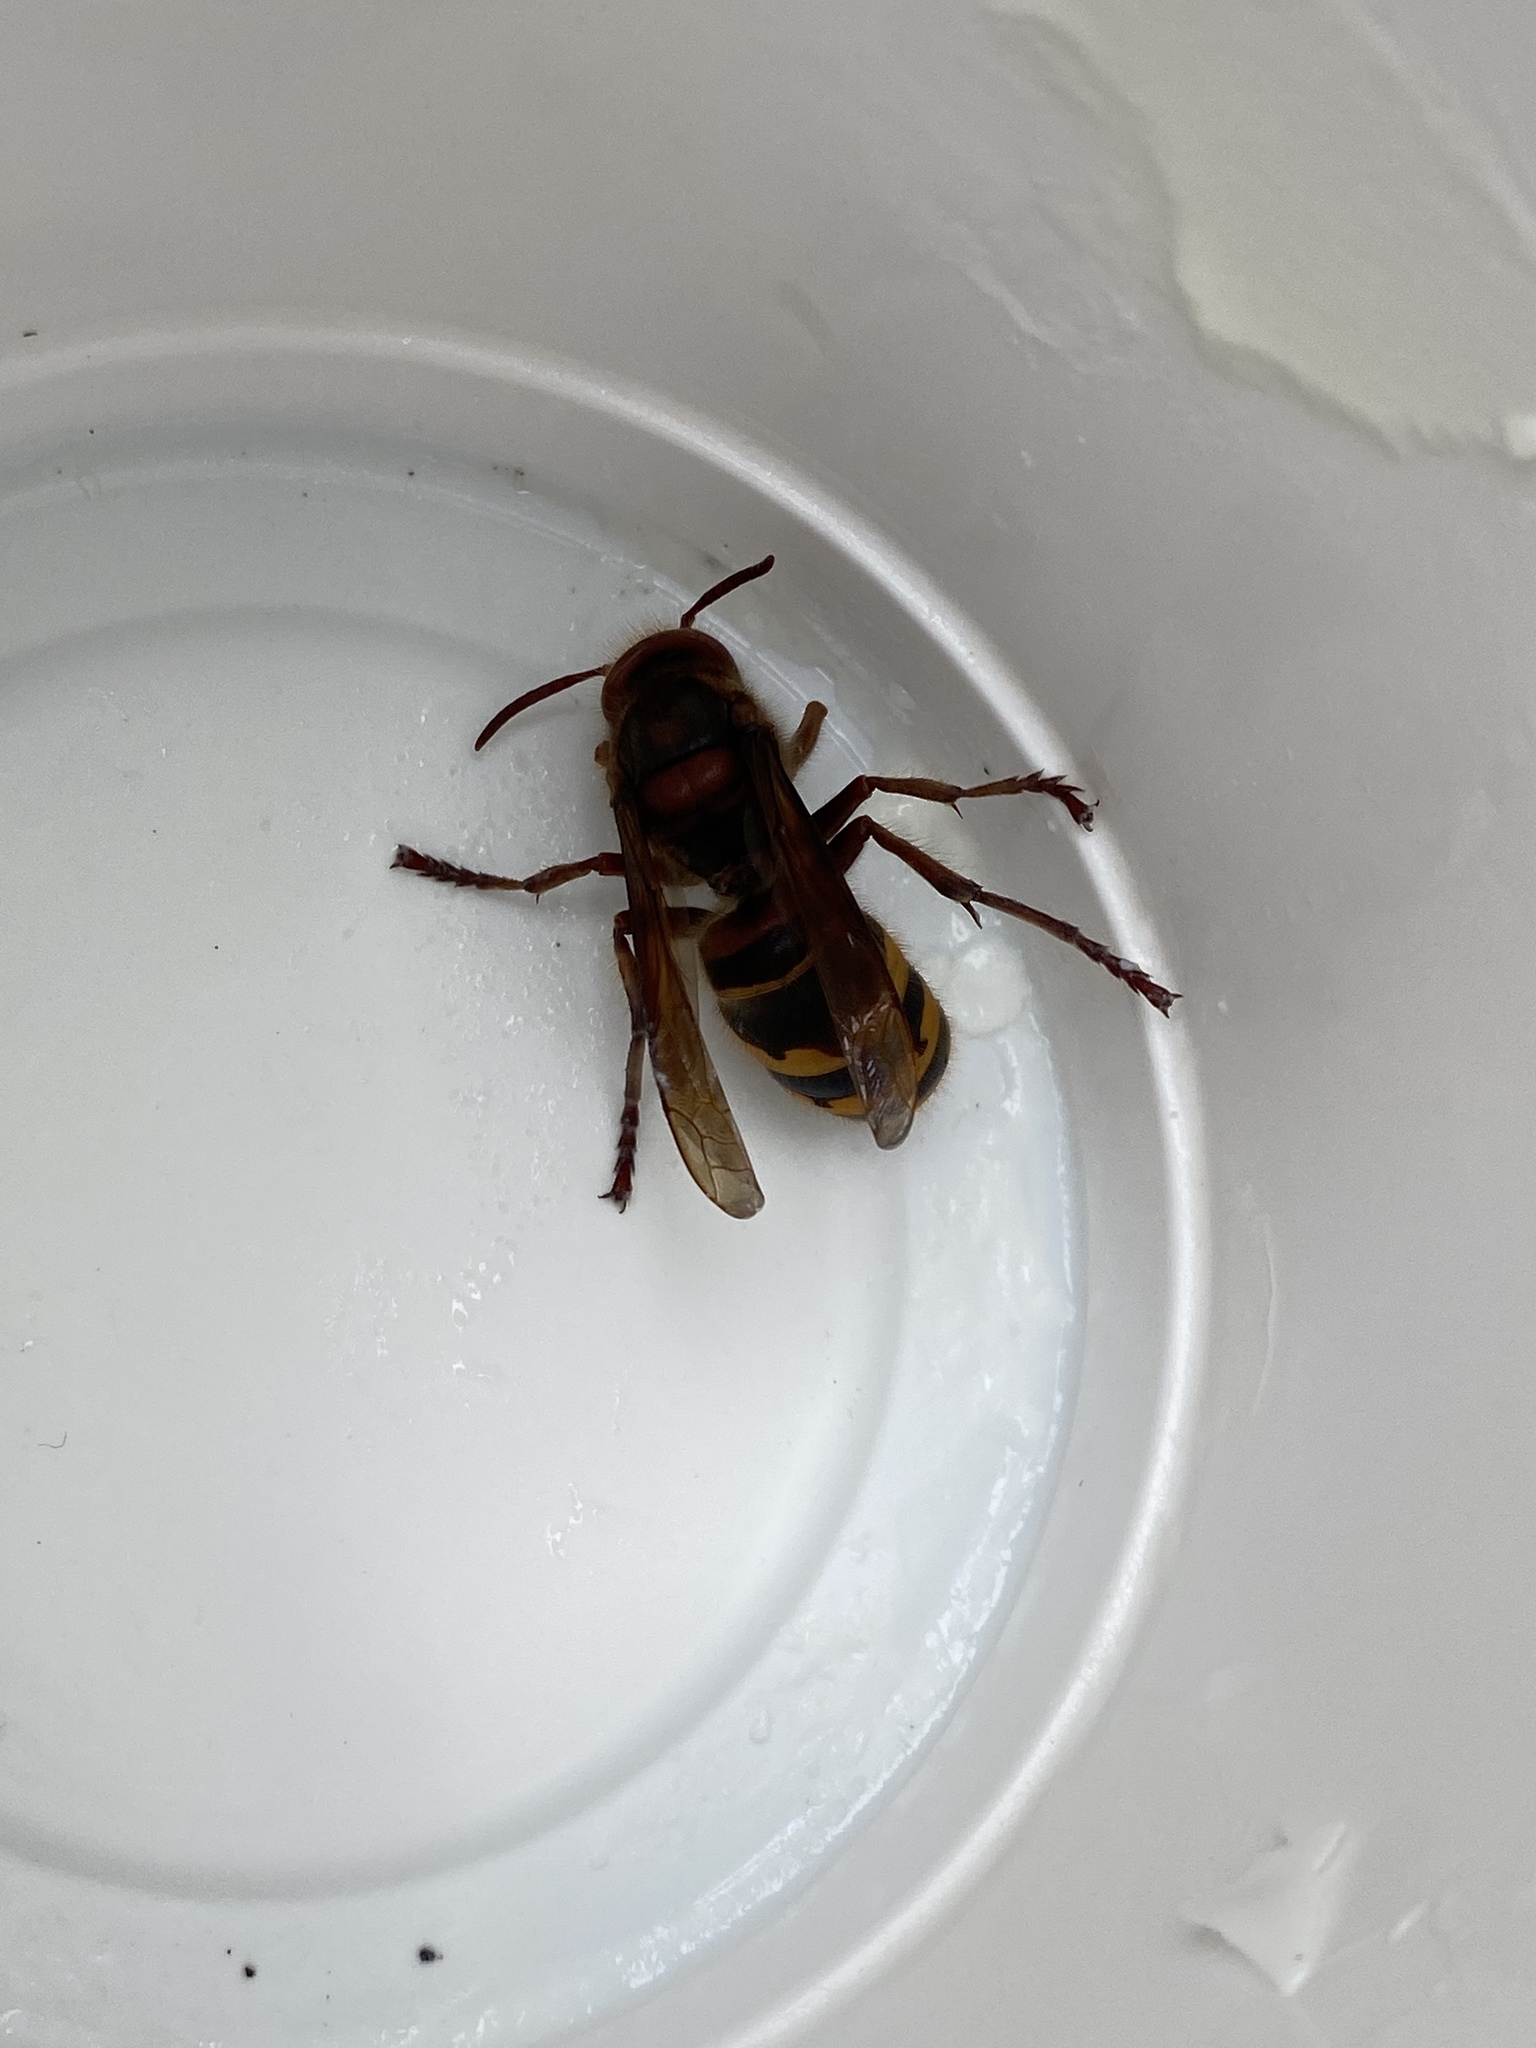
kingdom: Animalia
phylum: Arthropoda
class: Insecta
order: Hymenoptera
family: Vespidae
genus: Vespa
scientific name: Vespa crabro
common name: Hornet
